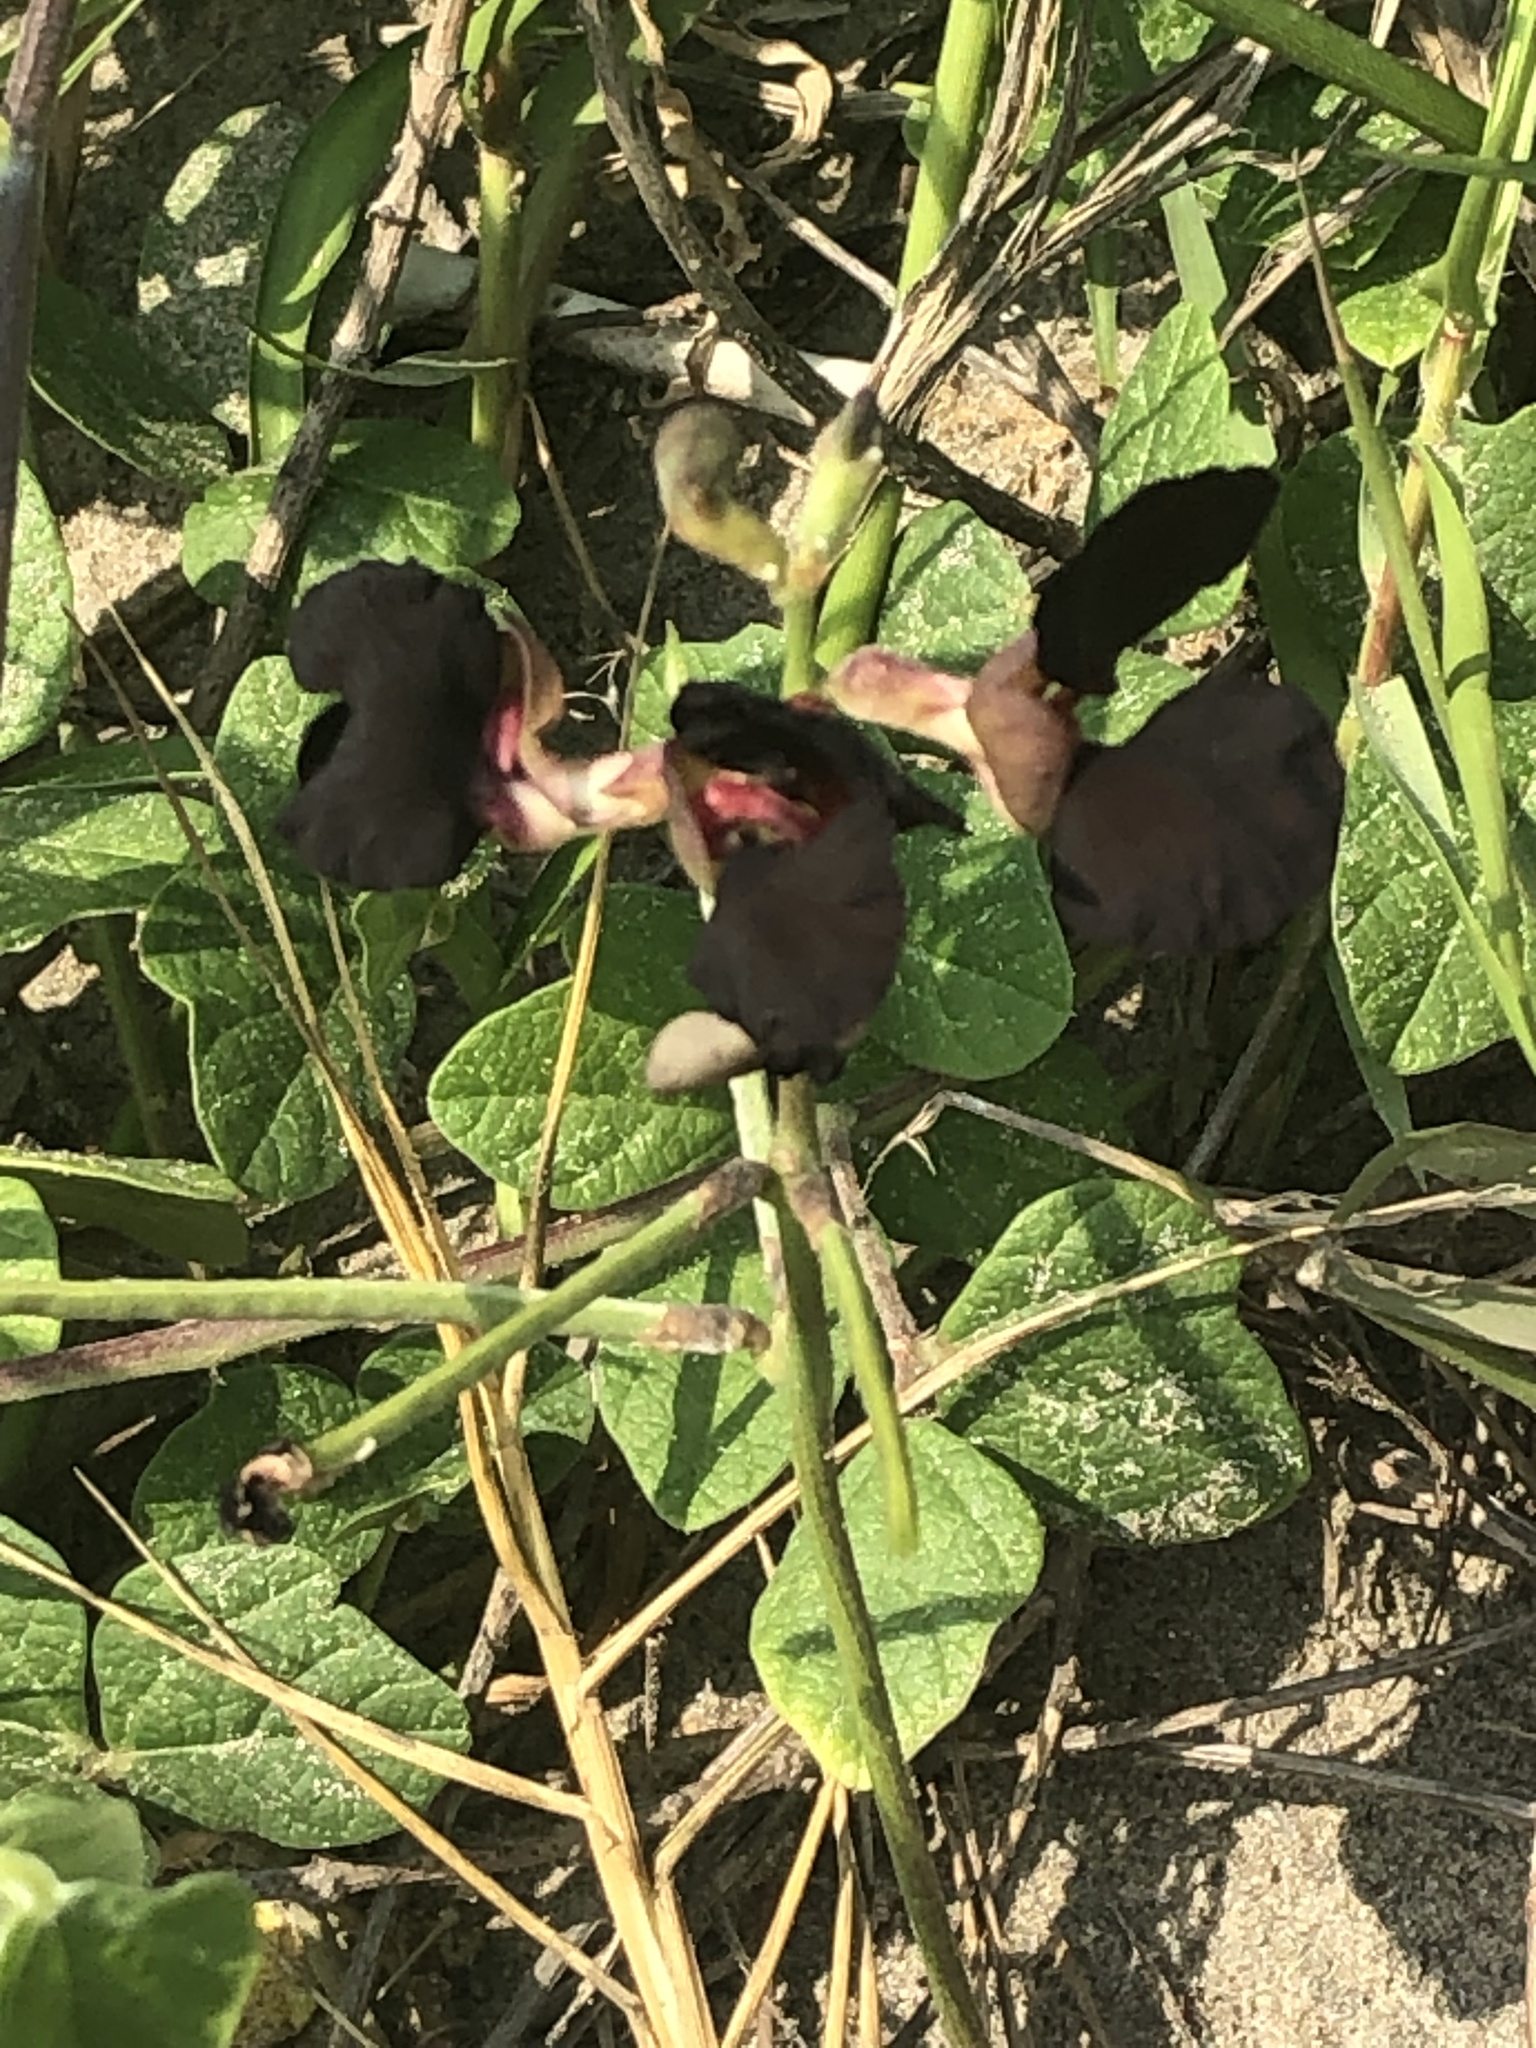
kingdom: Plantae
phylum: Tracheophyta
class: Magnoliopsida
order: Fabales
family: Fabaceae
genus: Macroptilium
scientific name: Macroptilium atropurpureum
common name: Purple bushbean
